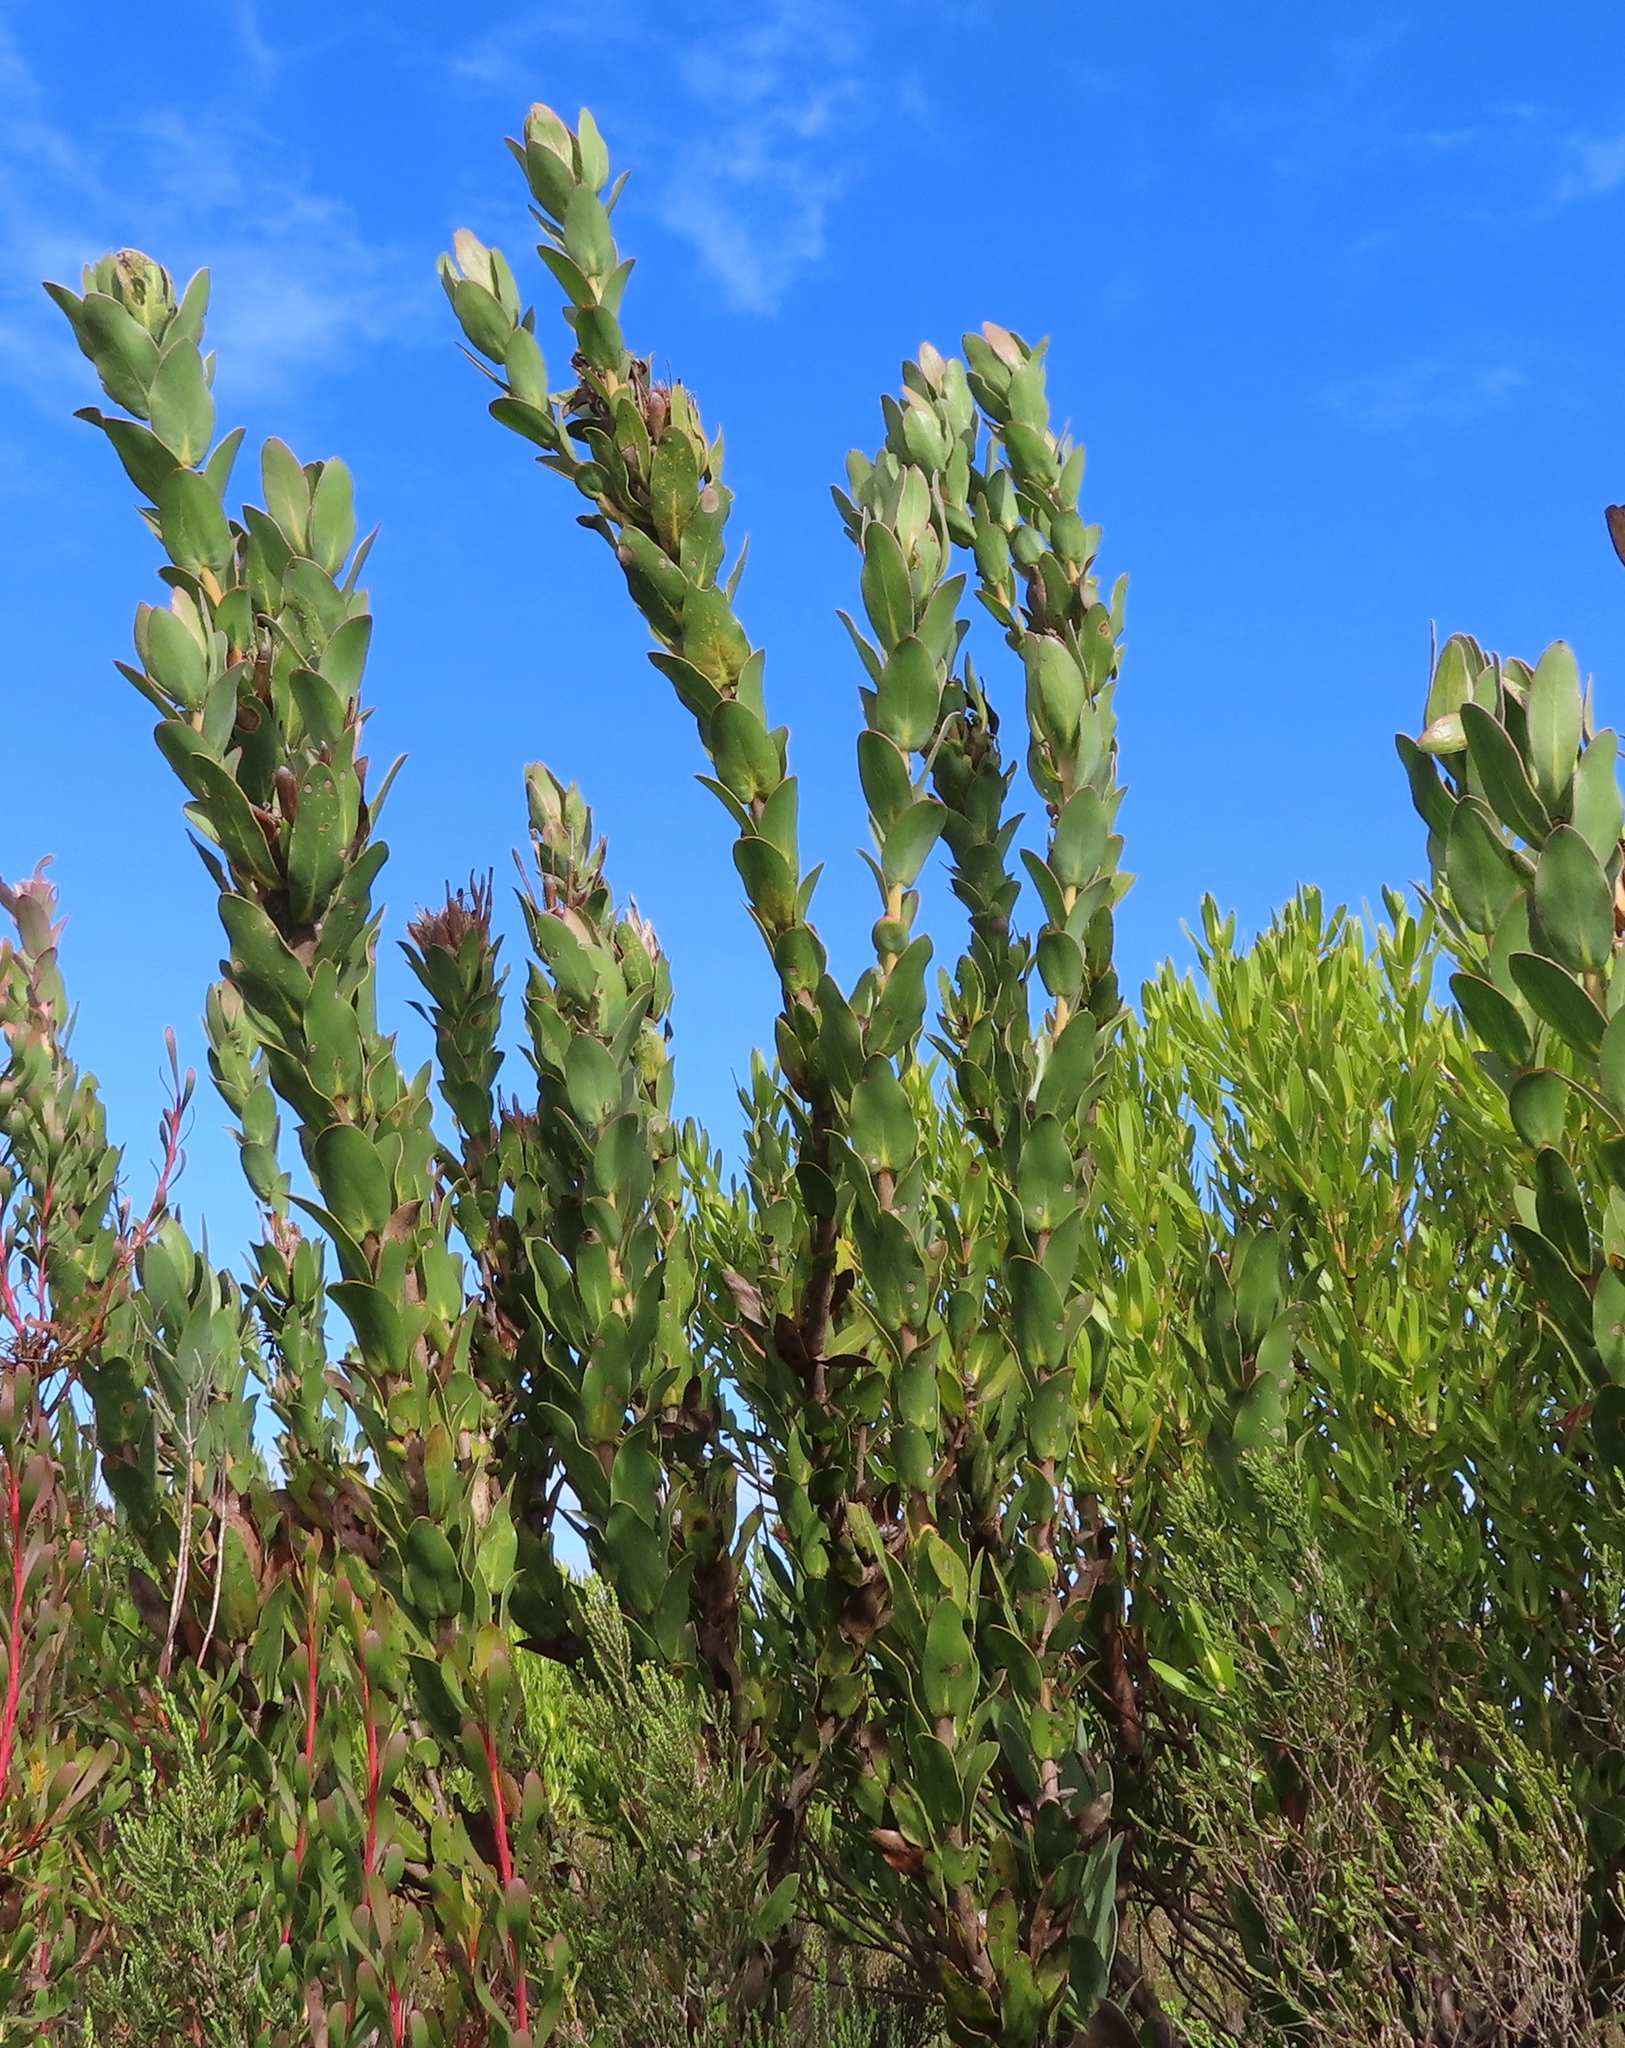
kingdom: Plantae
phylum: Tracheophyta
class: Magnoliopsida
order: Proteales
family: Proteaceae
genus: Protea
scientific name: Protea compacta
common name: Bot river protea
